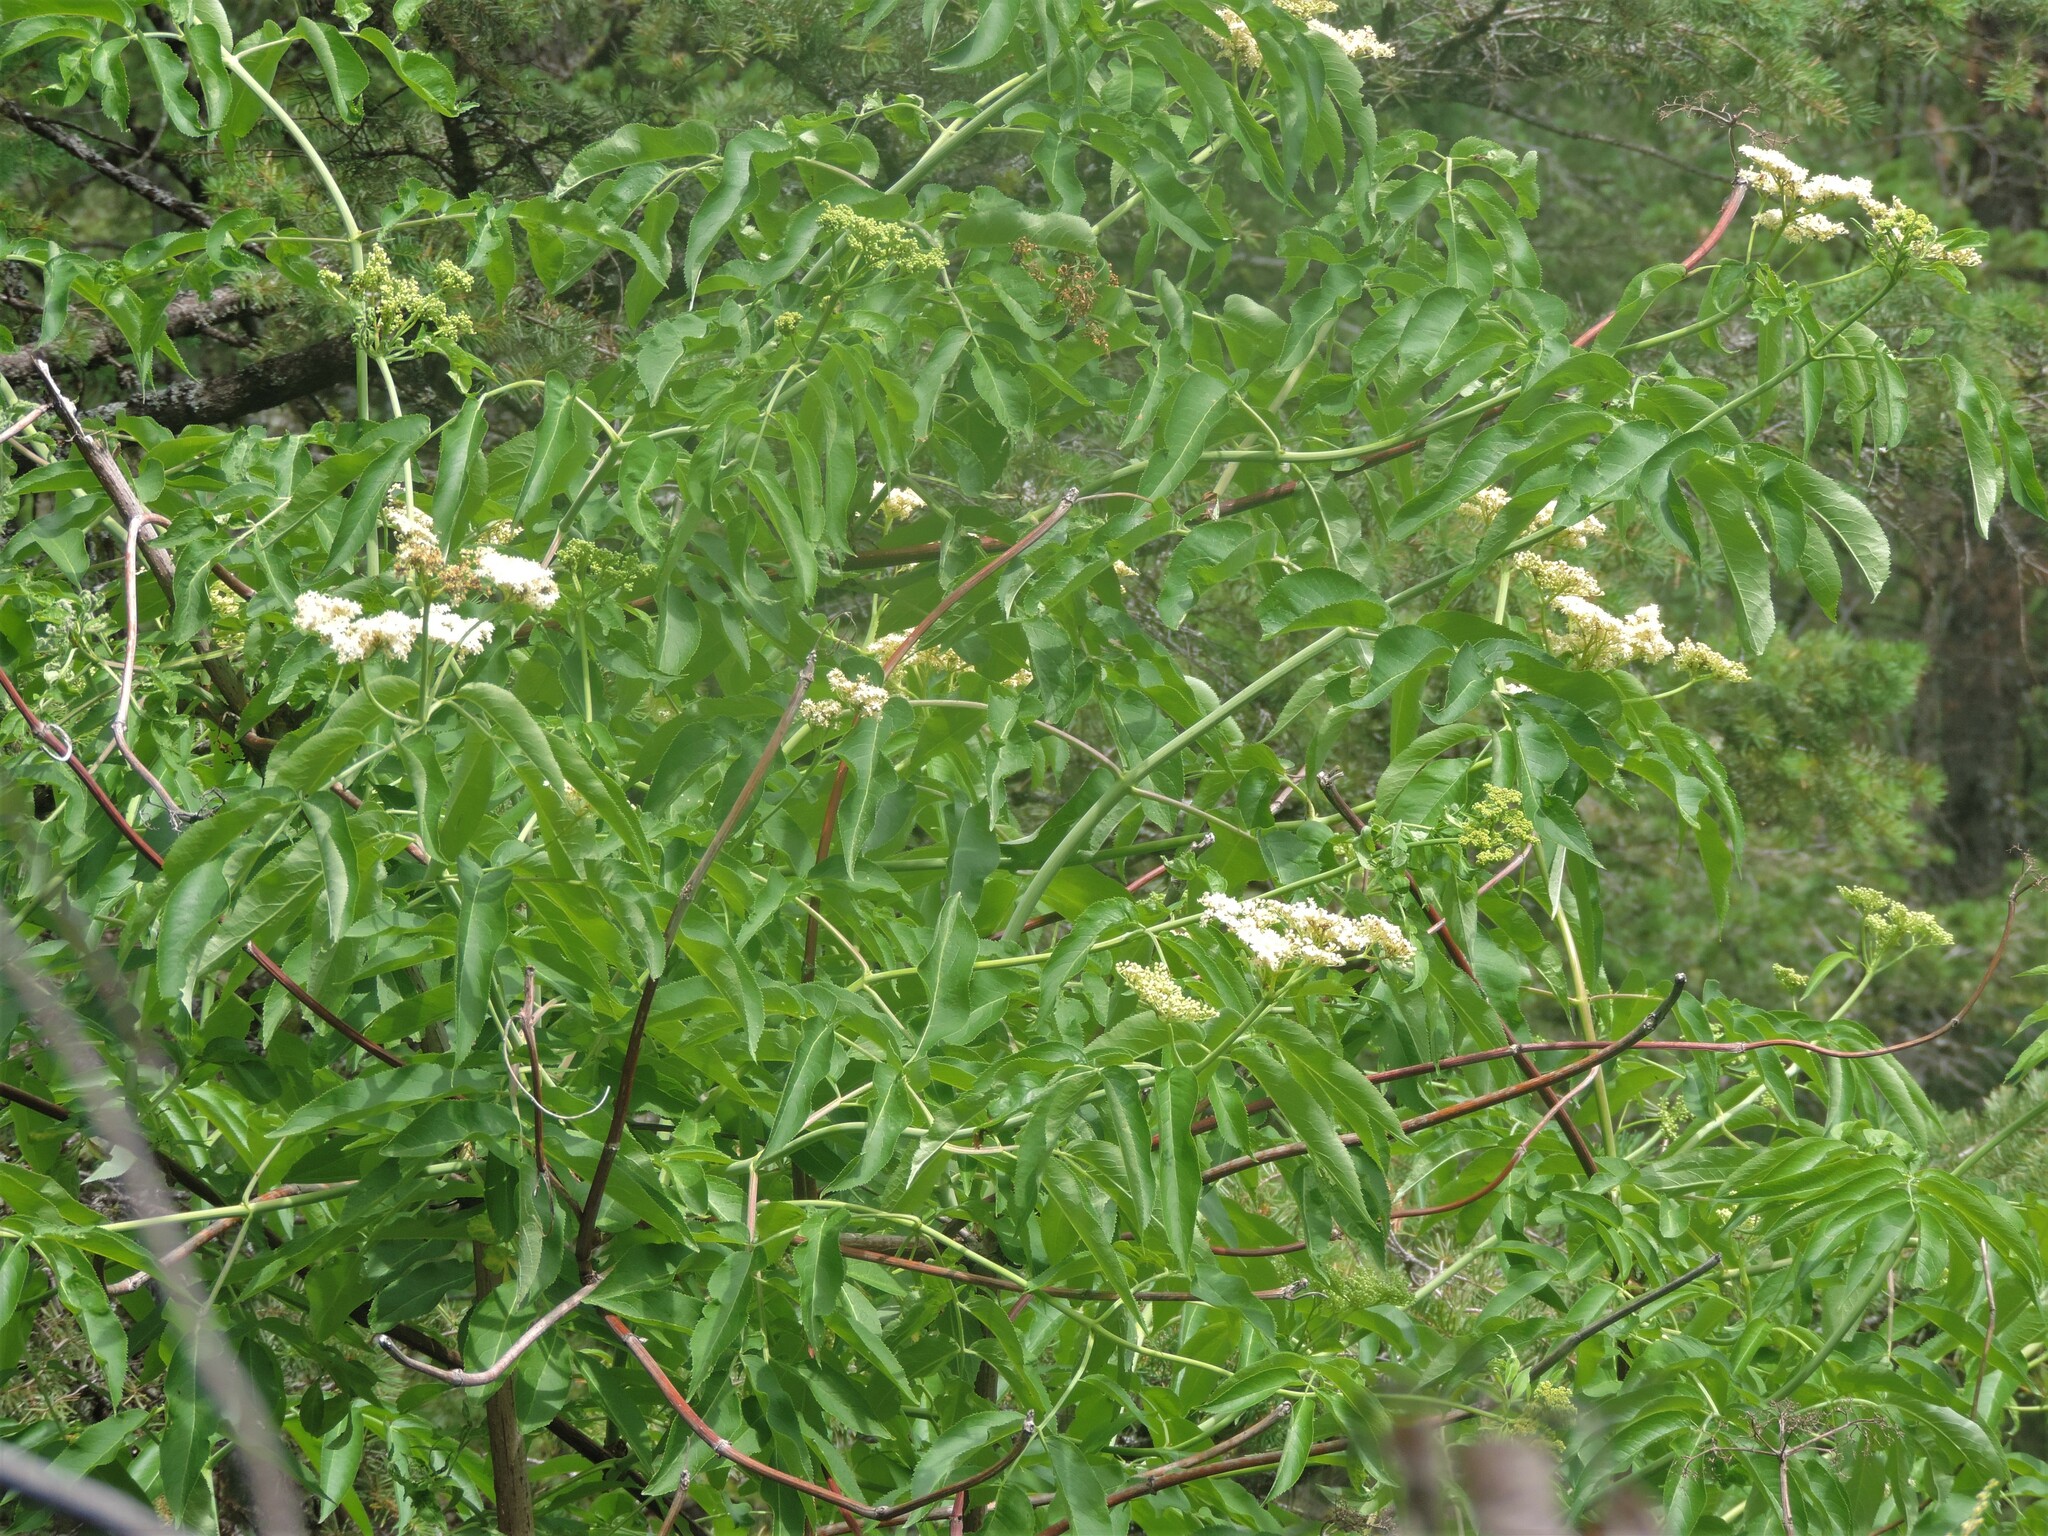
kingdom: Plantae
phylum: Tracheophyta
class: Magnoliopsida
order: Dipsacales
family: Viburnaceae
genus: Sambucus
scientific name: Sambucus cerulea
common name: Blue elder
